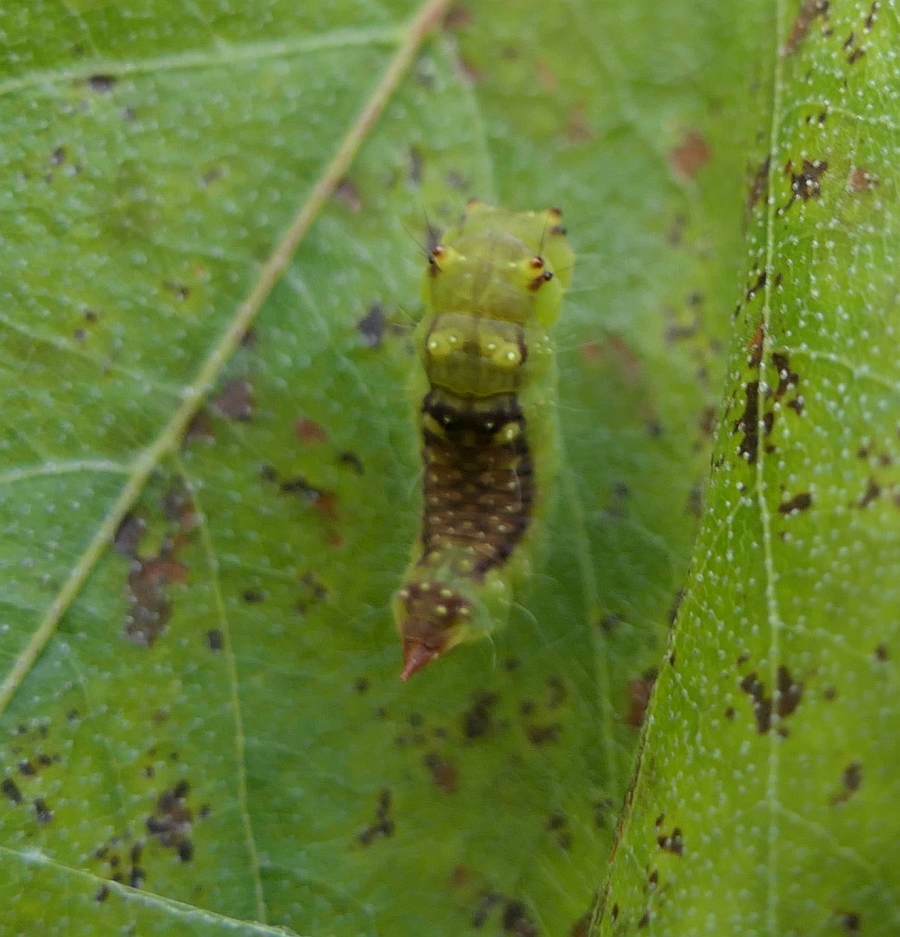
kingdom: Animalia
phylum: Arthropoda
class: Insecta
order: Lepidoptera
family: Drepanidae
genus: Drepana
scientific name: Drepana arcuata
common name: Arched hooktip moth
